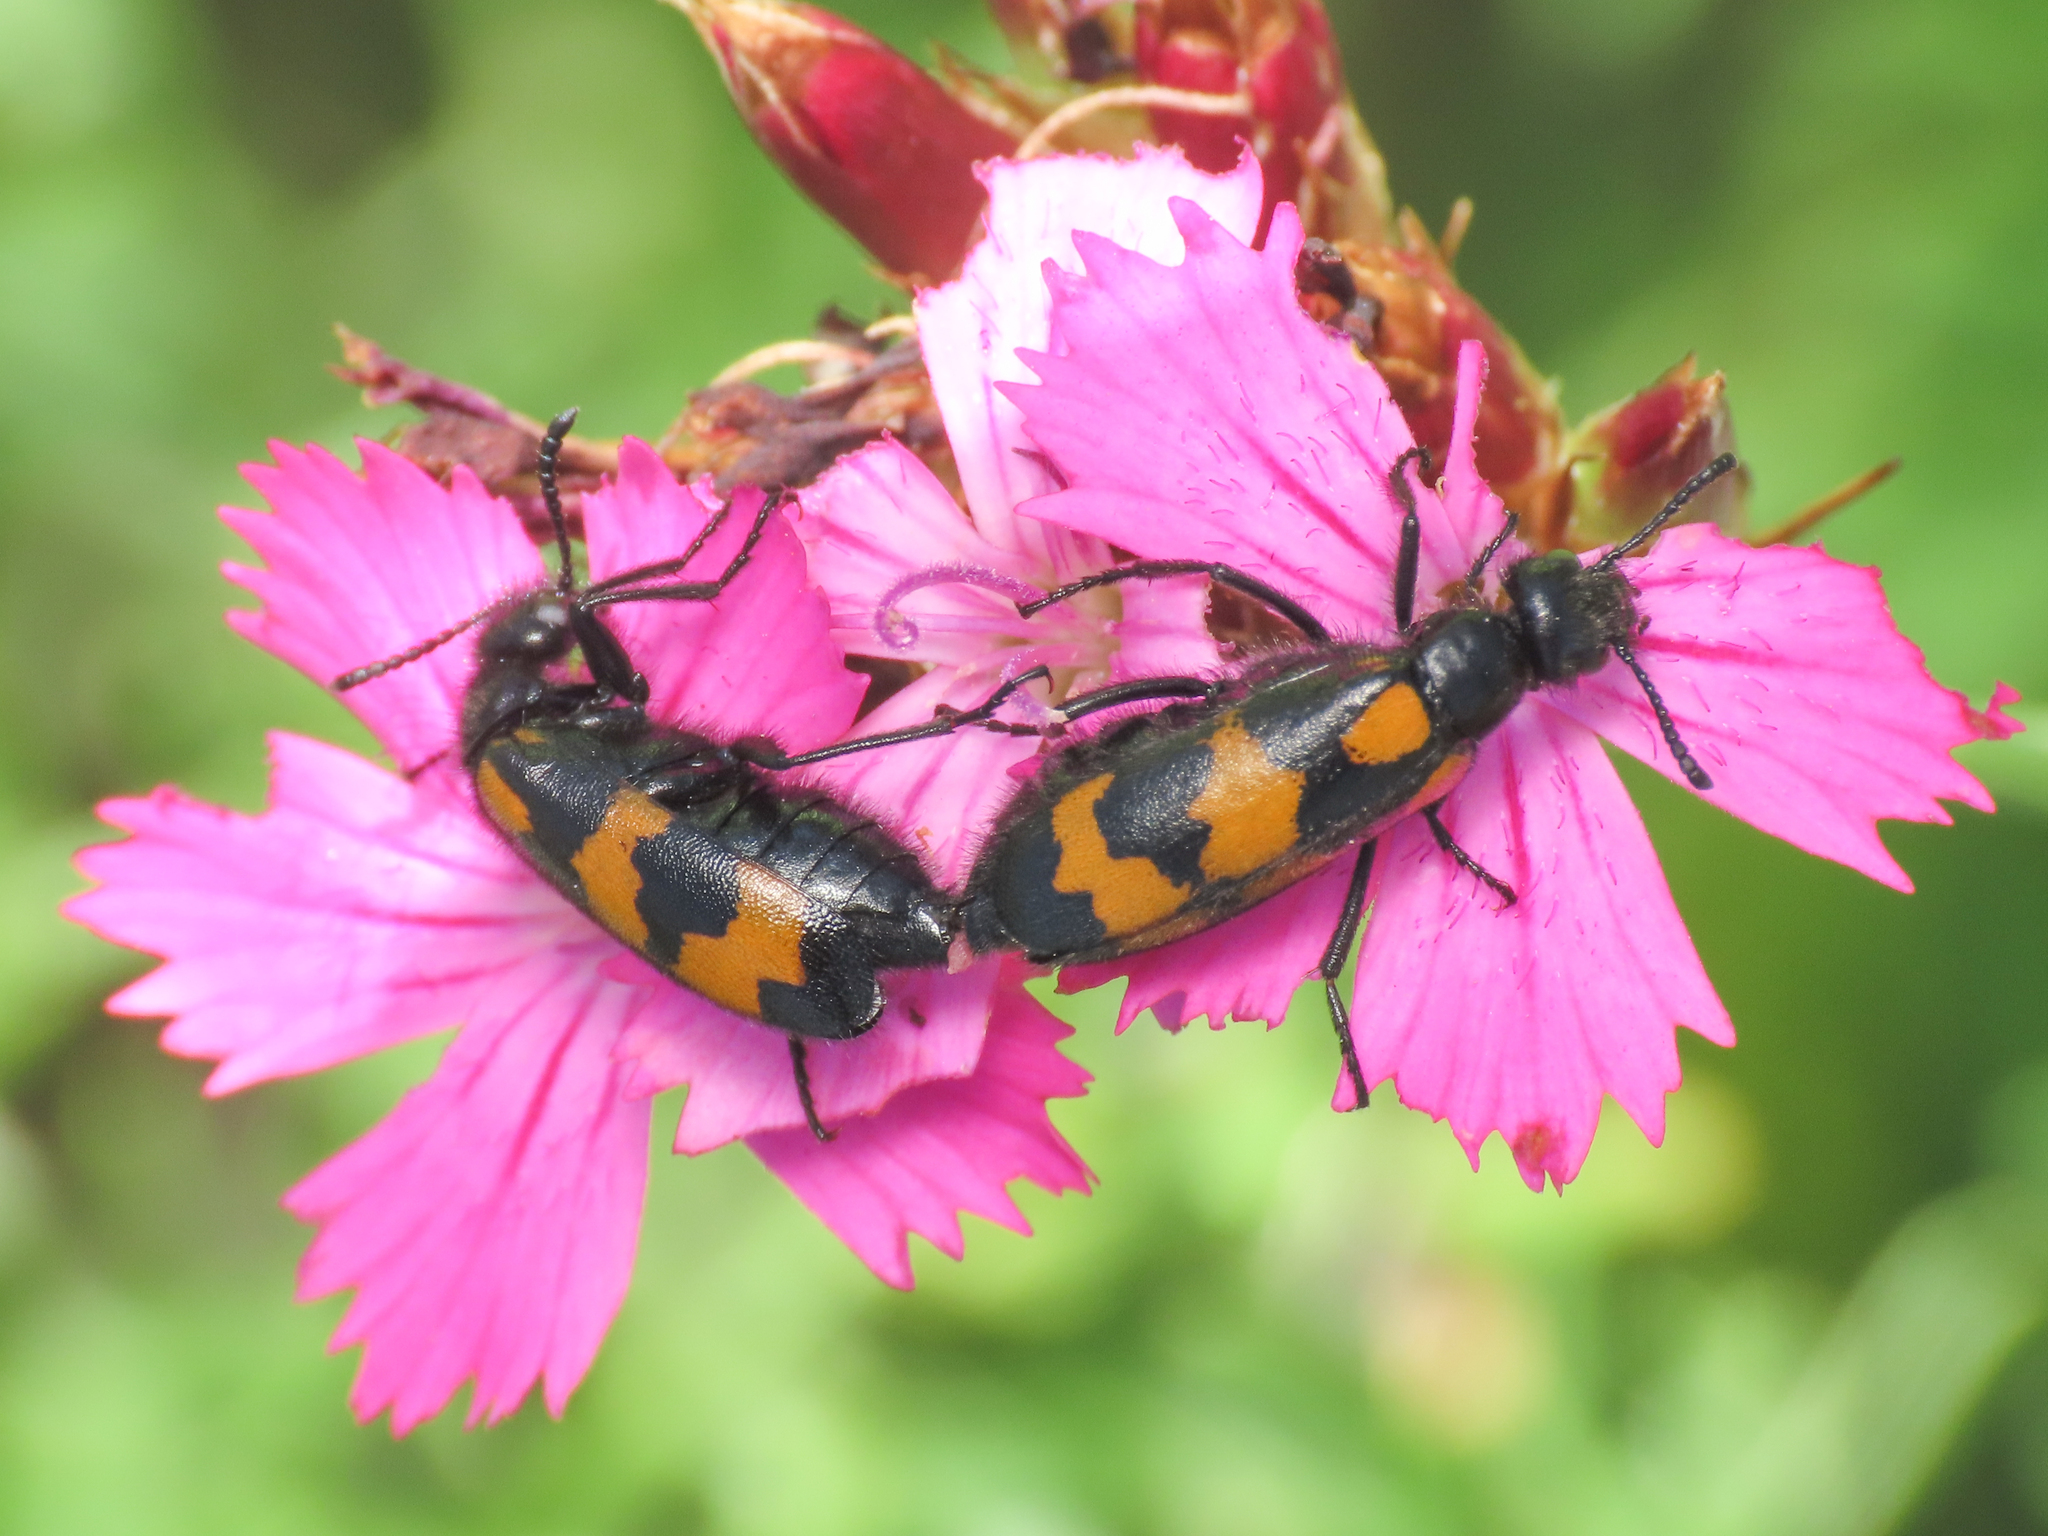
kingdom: Animalia
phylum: Arthropoda
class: Insecta
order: Coleoptera
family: Meloidae
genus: Mylabris
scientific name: Mylabris variabilis
